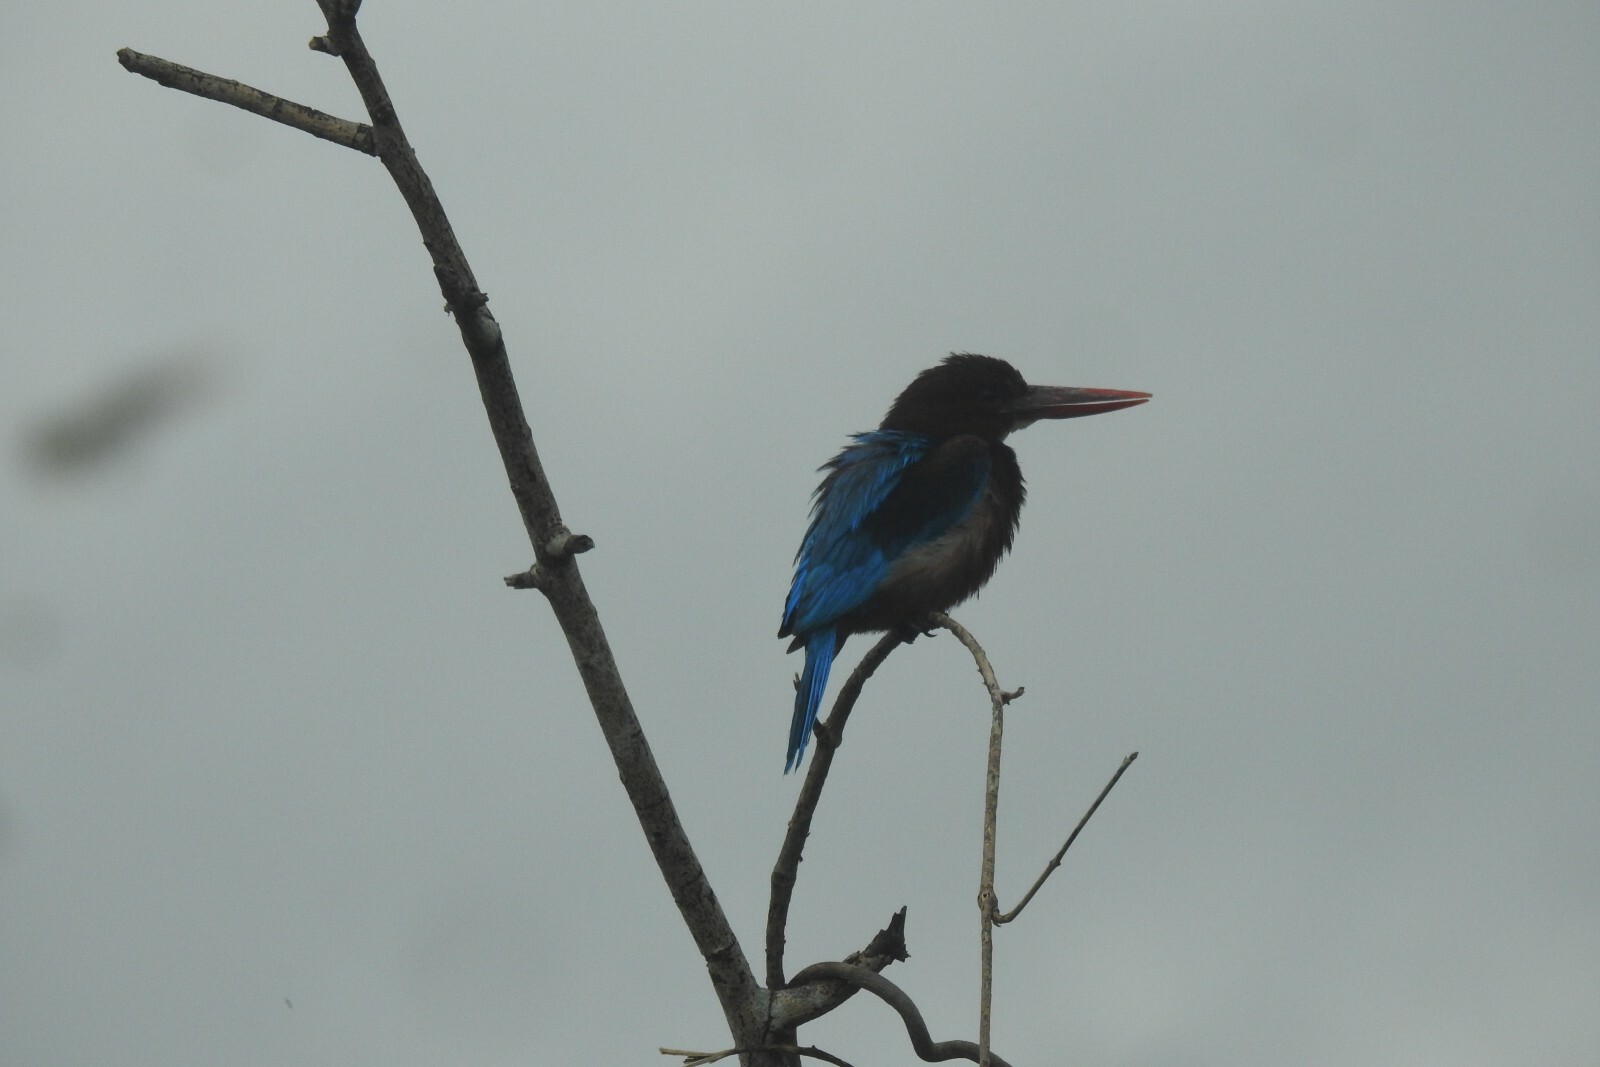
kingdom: Animalia
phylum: Chordata
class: Aves
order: Coraciiformes
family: Alcedinidae
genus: Halcyon
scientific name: Halcyon smyrnensis
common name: White-throated kingfisher
